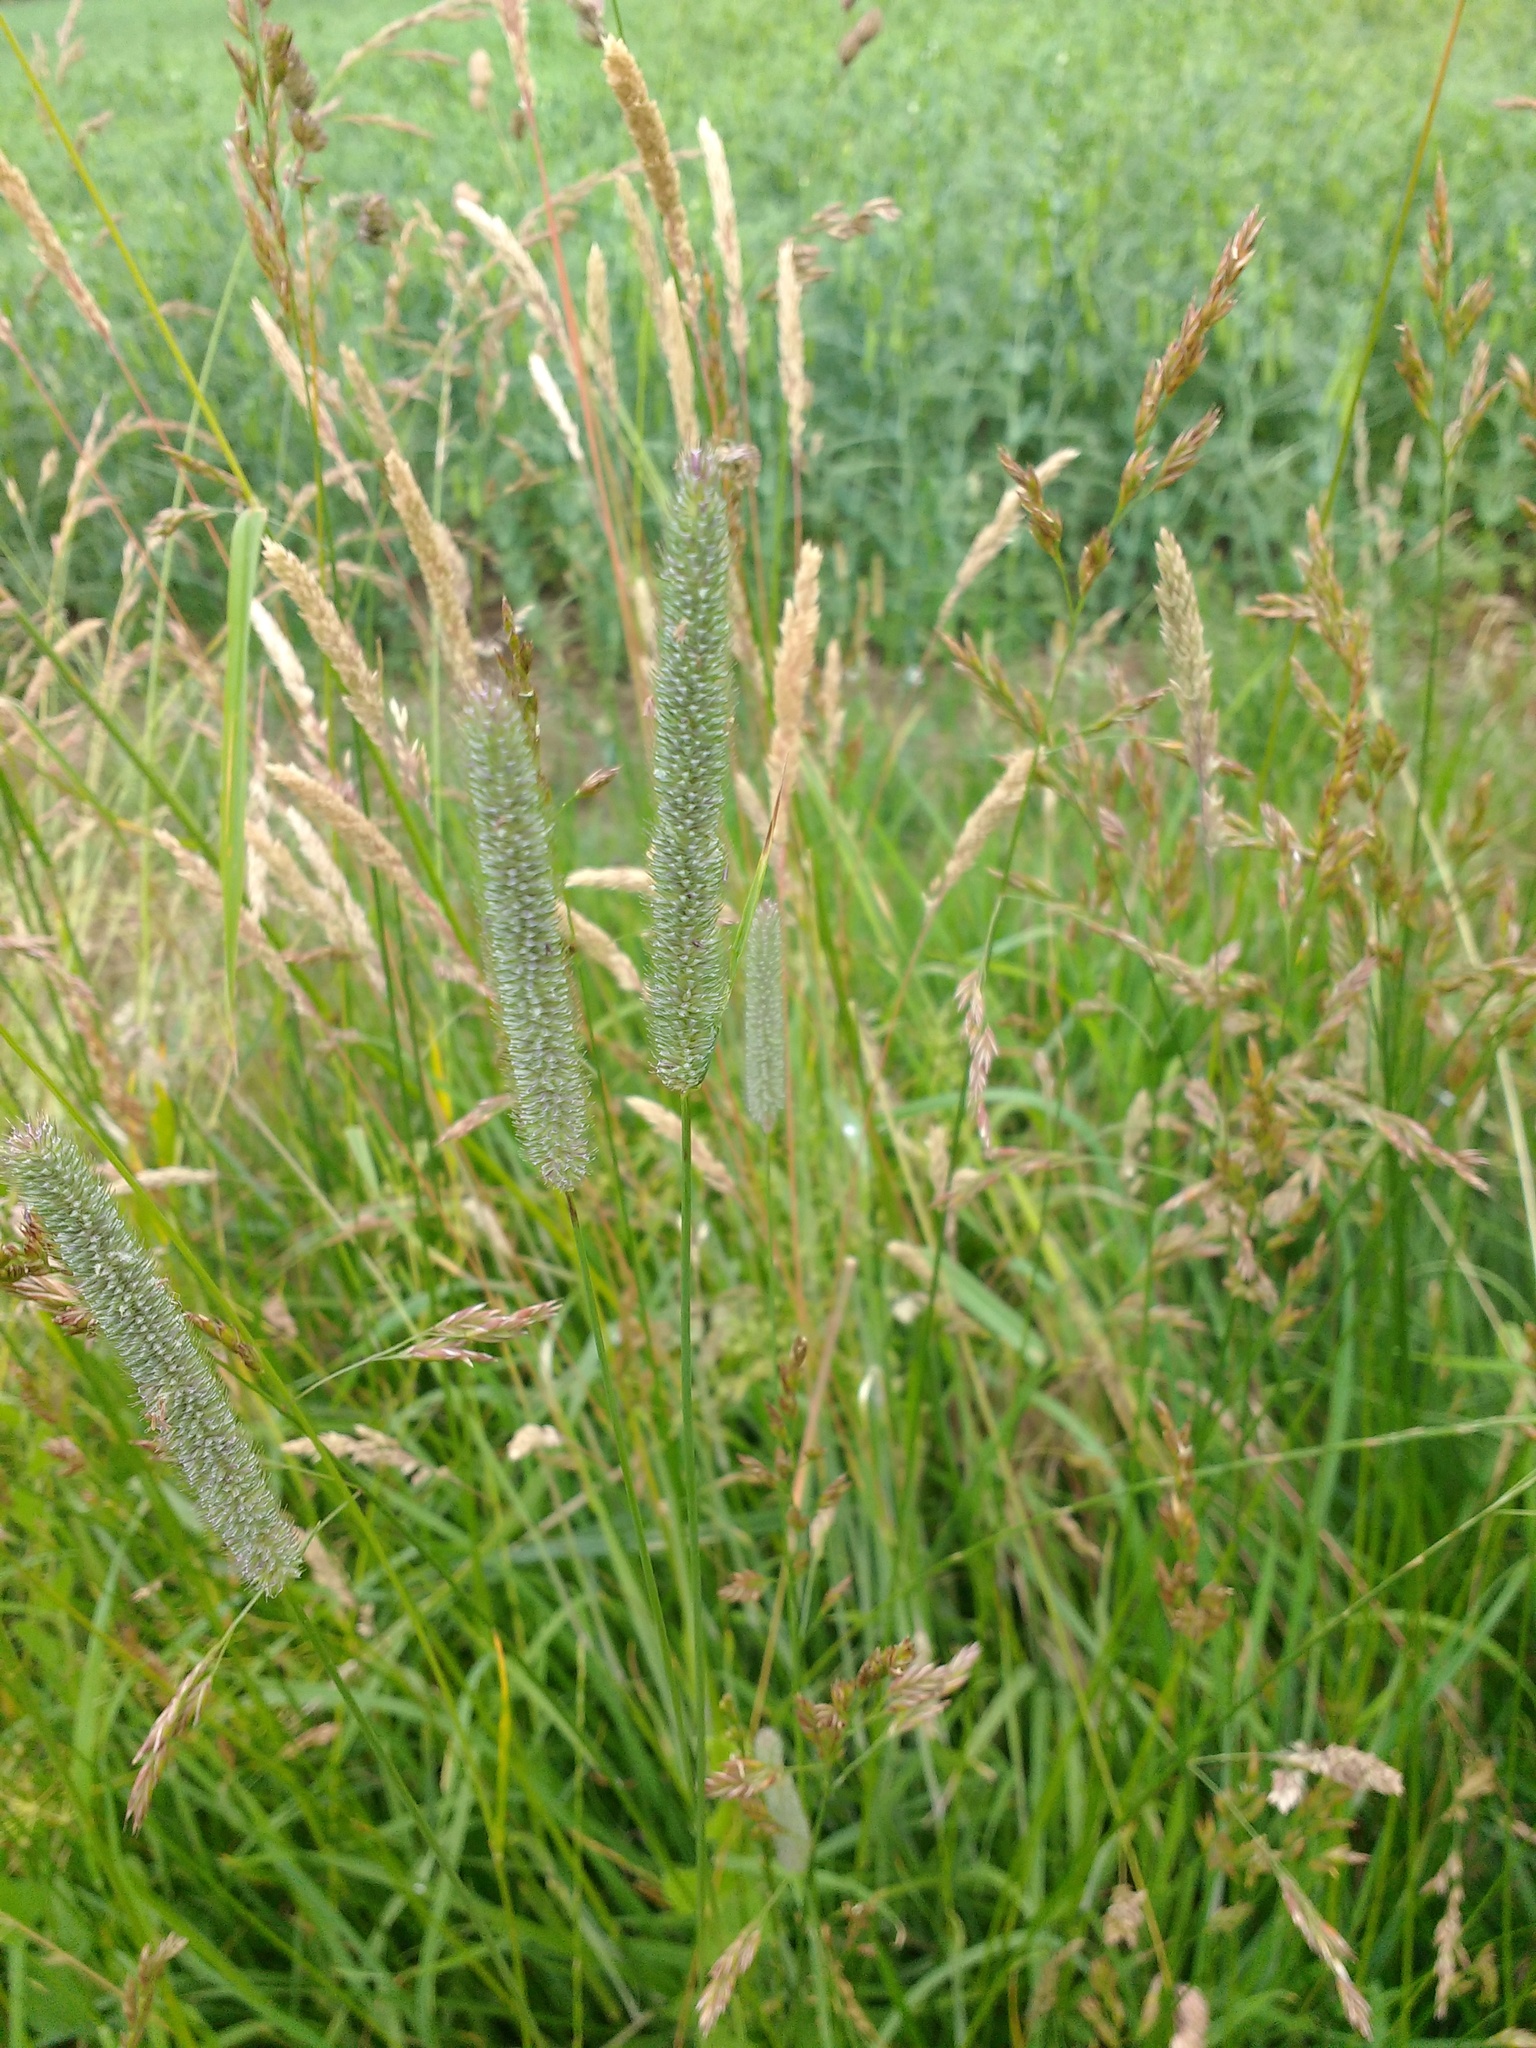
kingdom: Plantae
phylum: Tracheophyta
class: Liliopsida
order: Poales
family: Poaceae
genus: Phleum
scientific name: Phleum pratense
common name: Timothy grass
